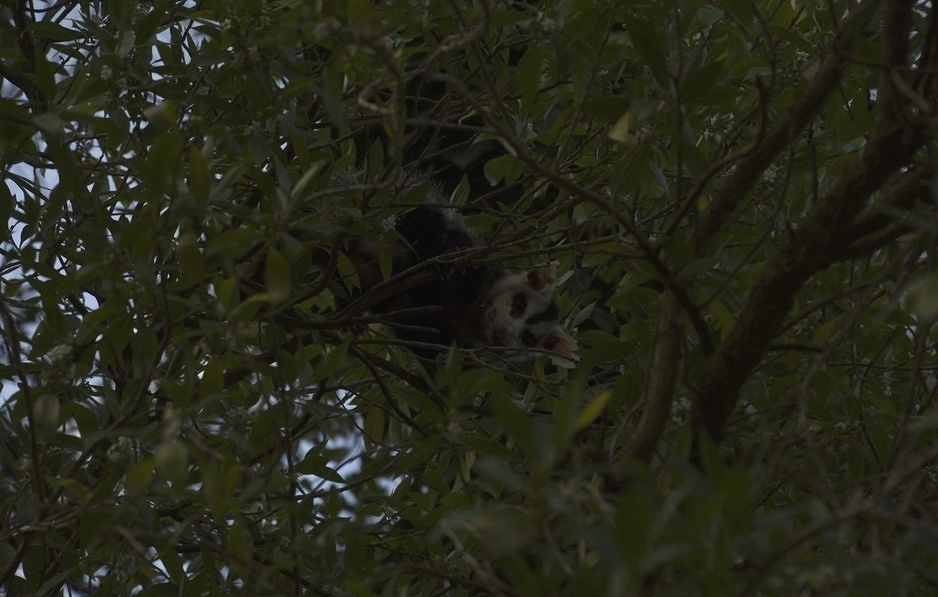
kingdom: Animalia
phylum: Chordata
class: Mammalia
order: Didelphimorphia
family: Didelphidae
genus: Didelphis
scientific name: Didelphis albiventris
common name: White-eared opossum
